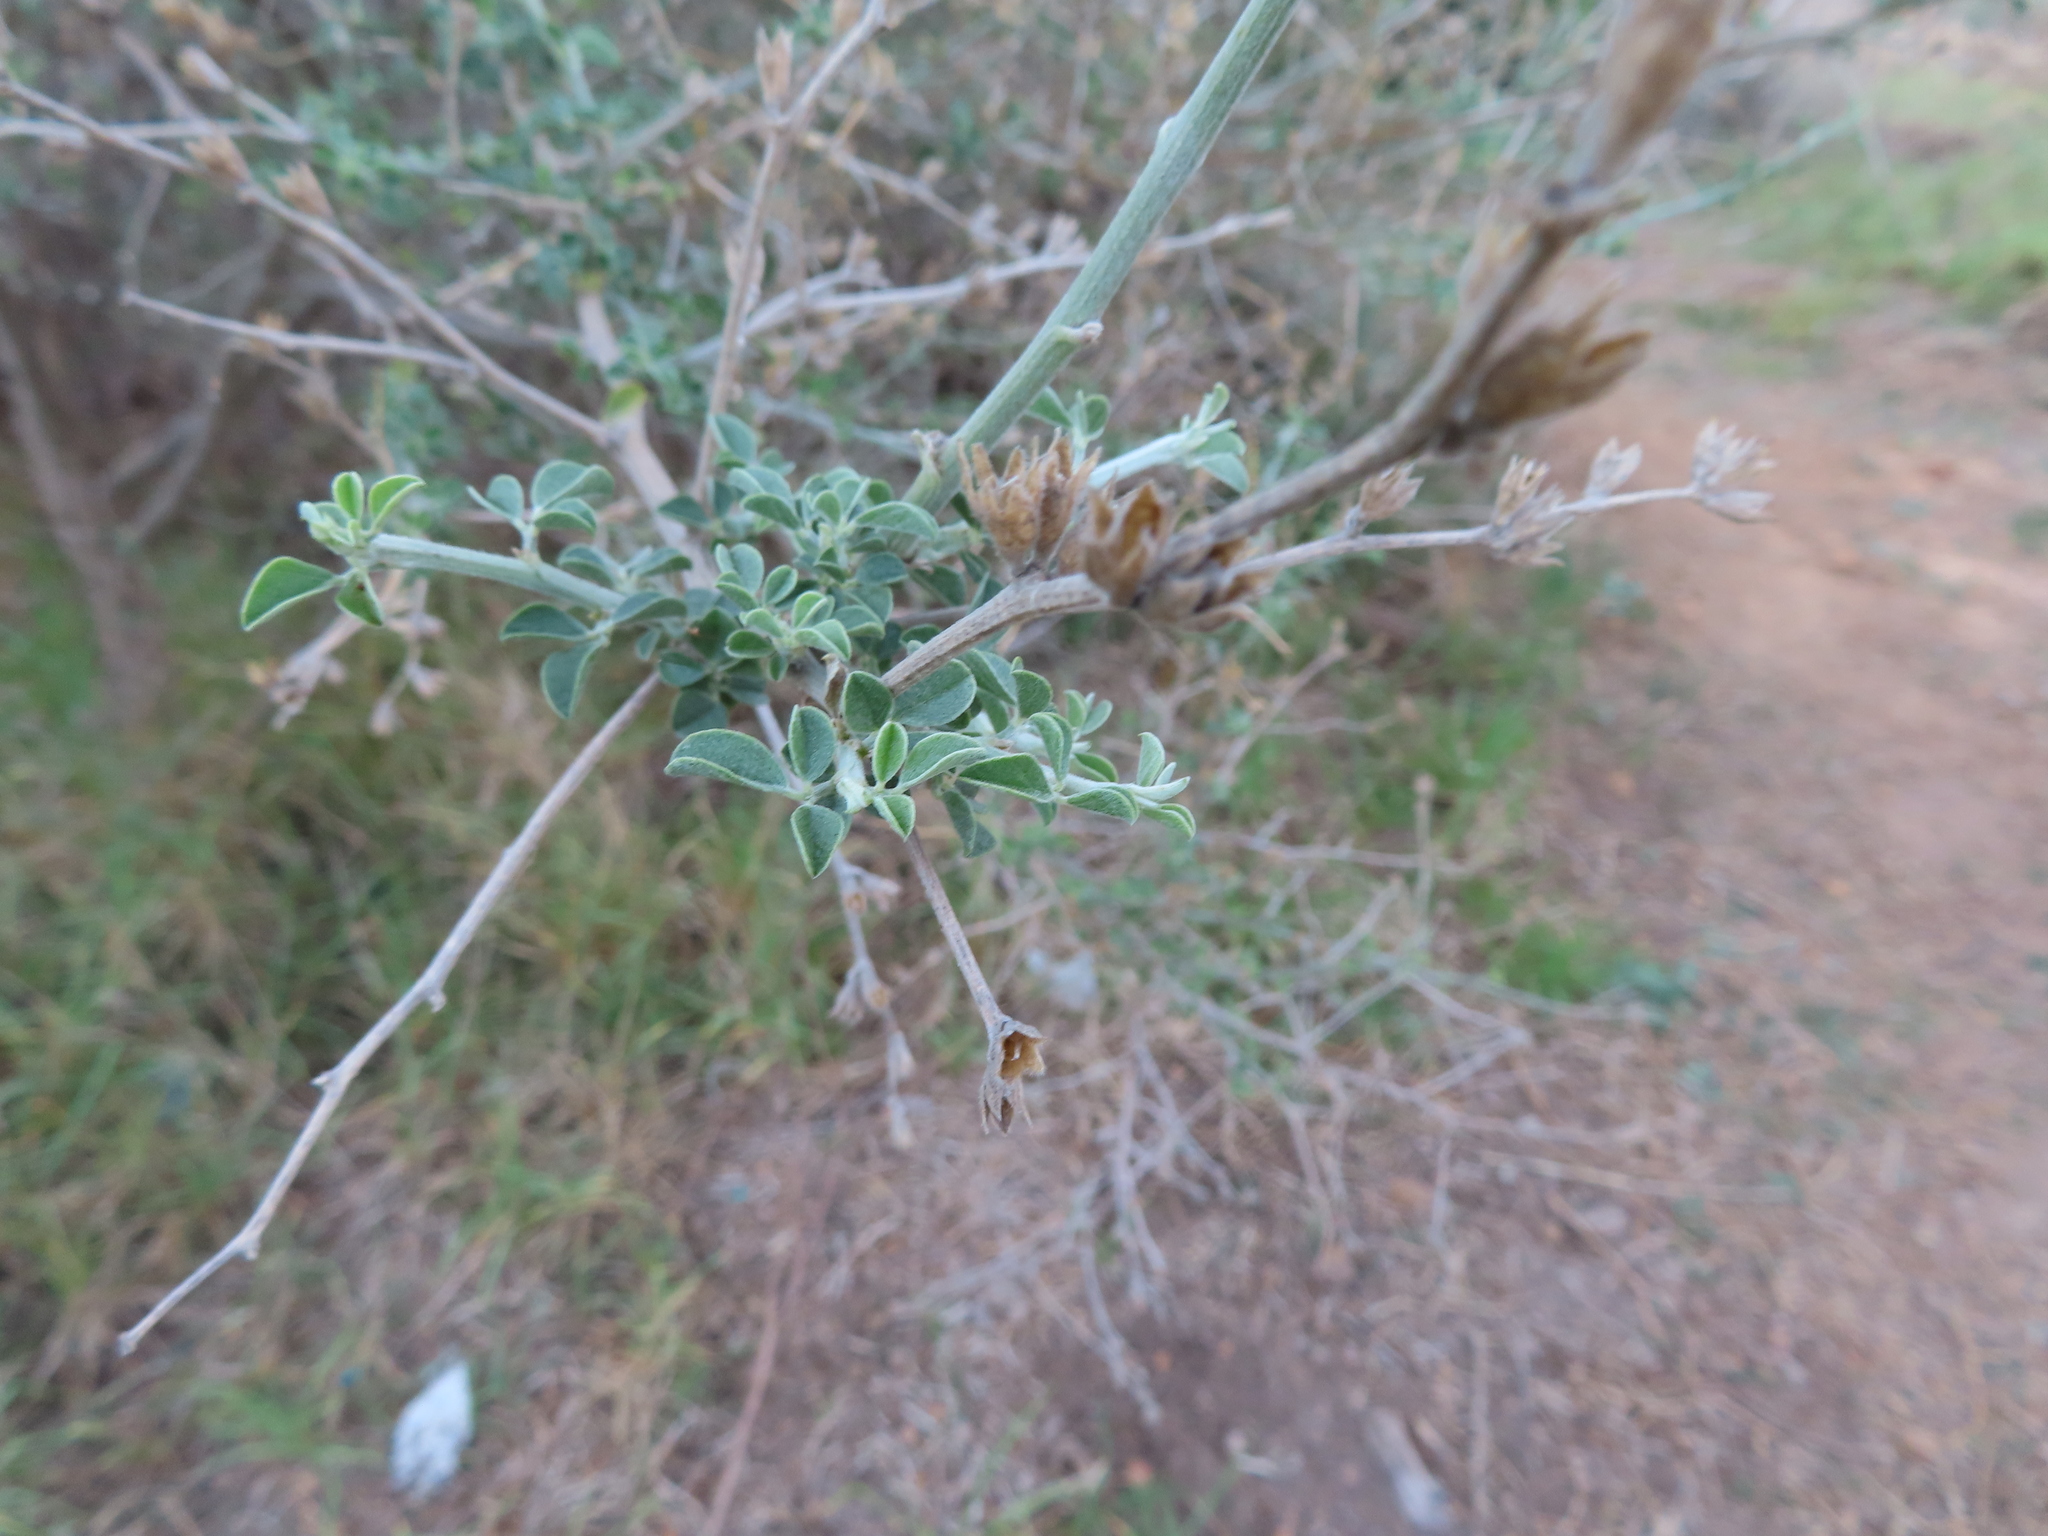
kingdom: Plantae
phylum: Tracheophyta
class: Magnoliopsida
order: Fabales
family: Fabaceae
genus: Psoralea
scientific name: Psoralea hirta
